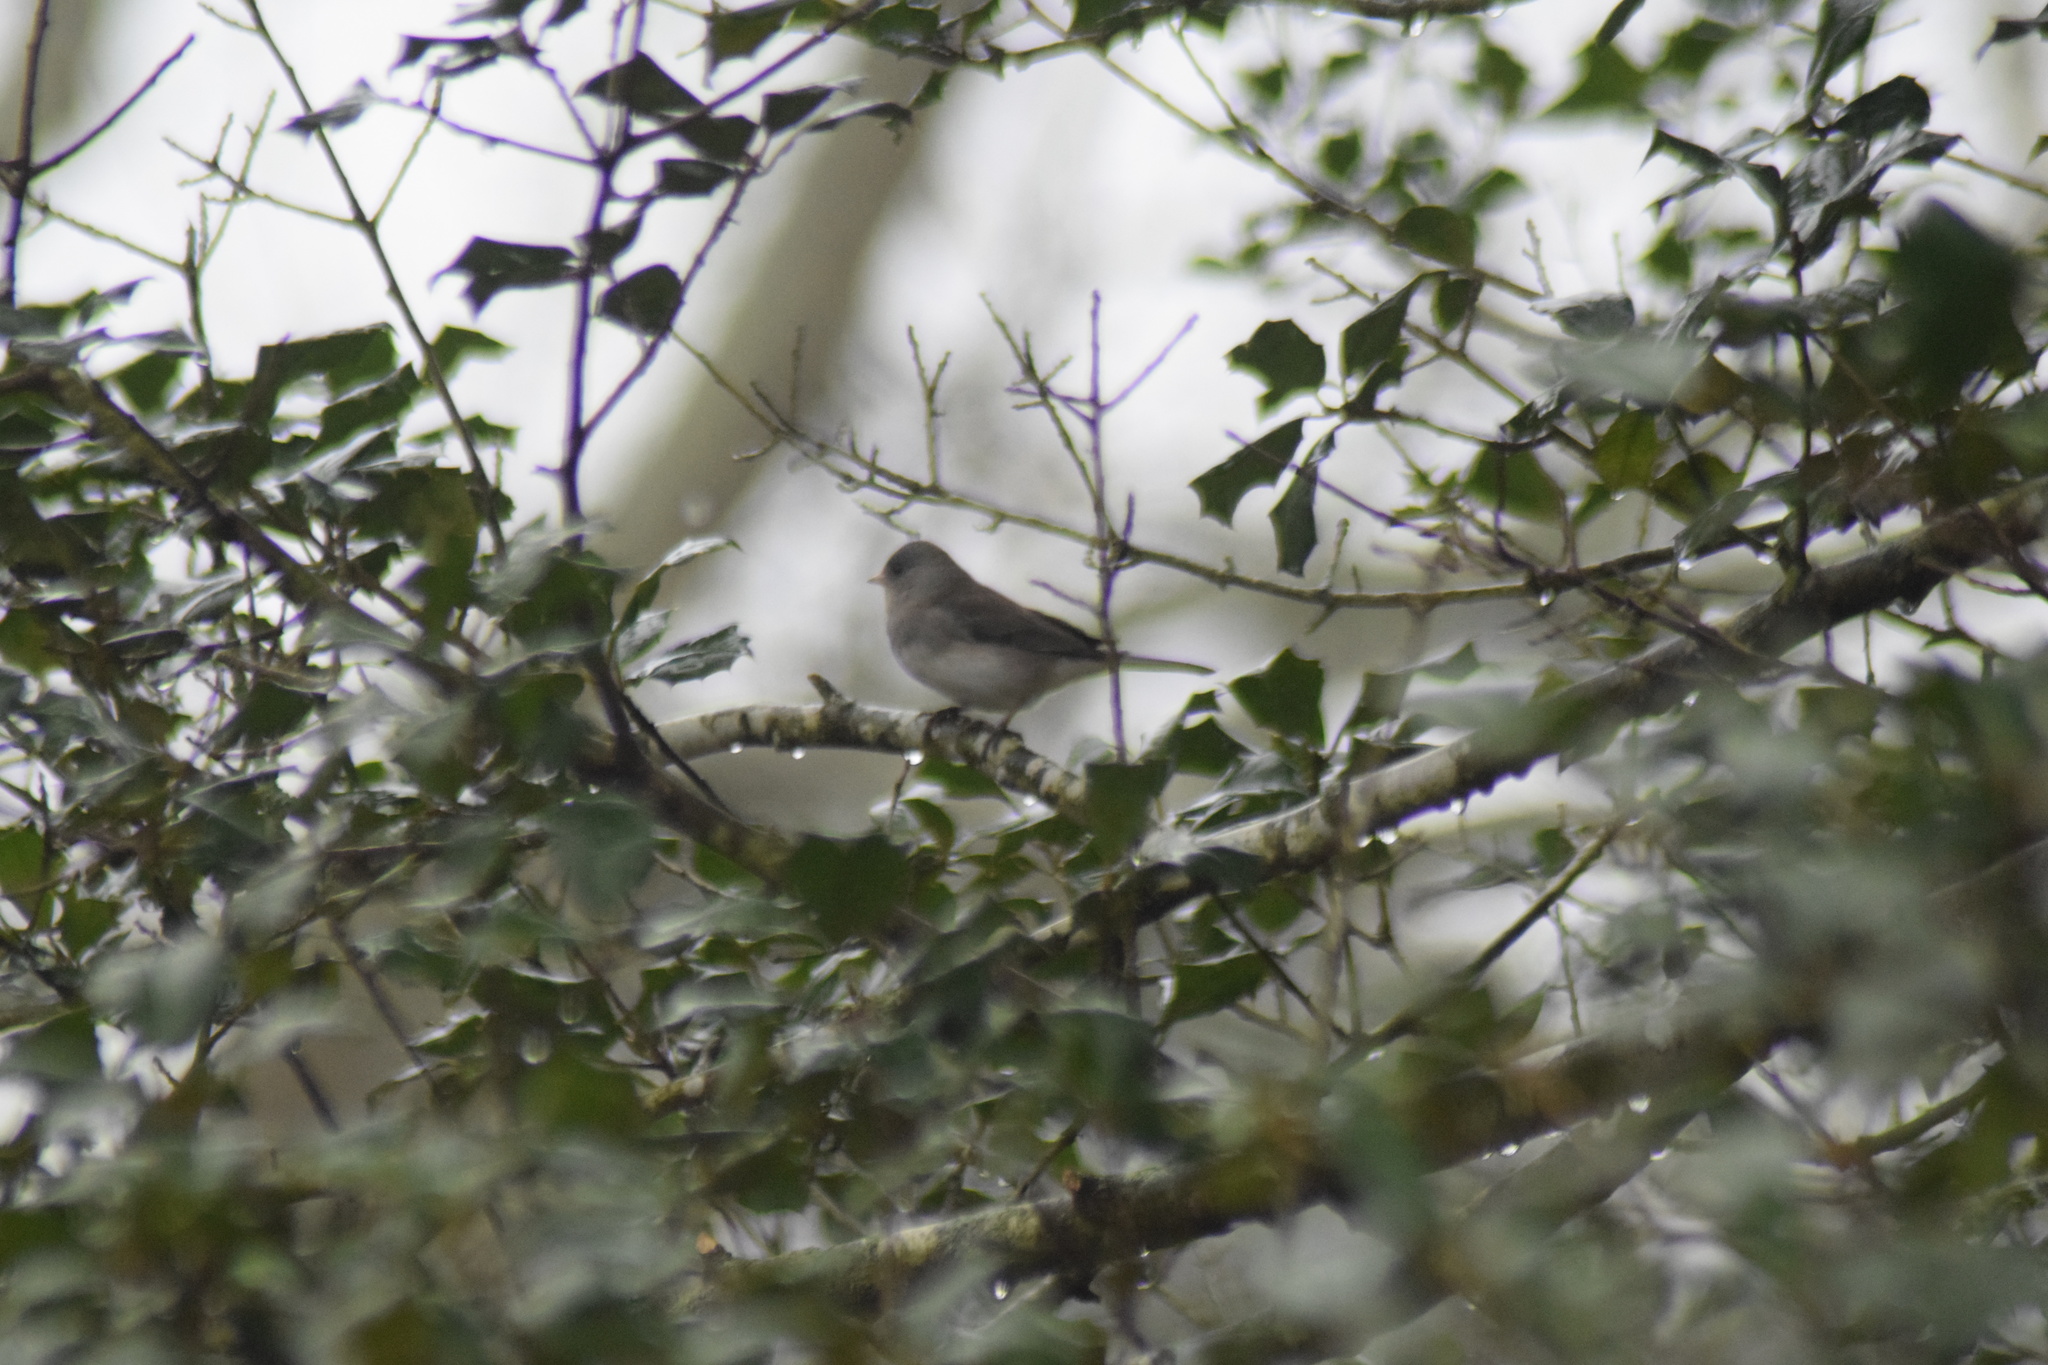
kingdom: Animalia
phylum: Chordata
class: Aves
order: Passeriformes
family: Passerellidae
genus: Junco
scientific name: Junco hyemalis
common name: Dark-eyed junco
